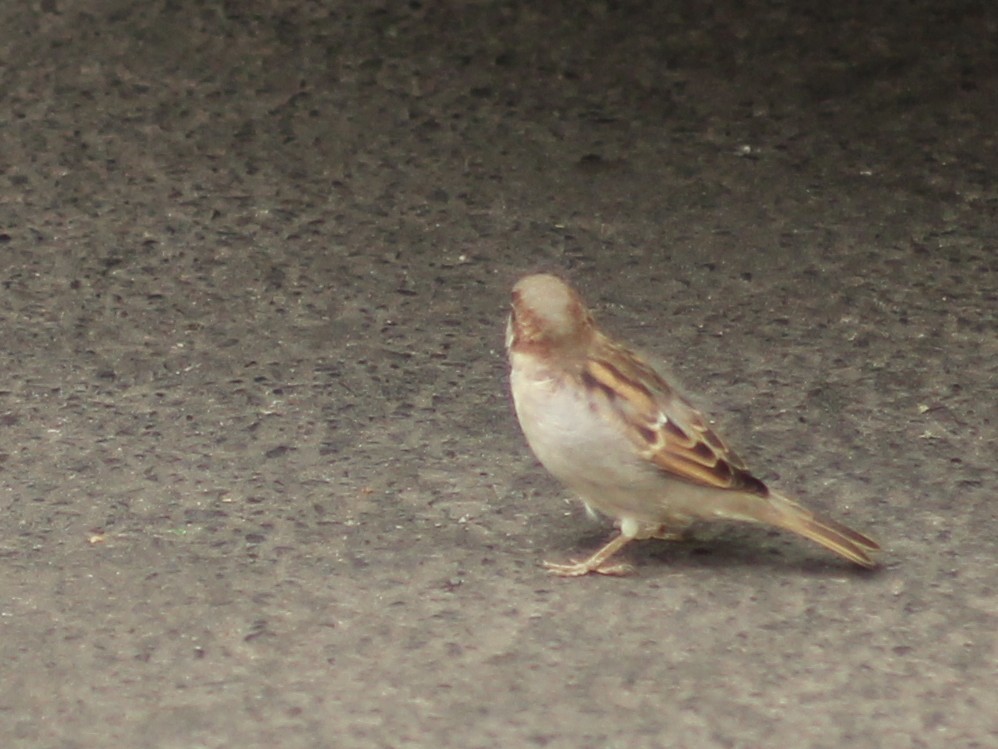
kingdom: Animalia
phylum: Chordata
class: Aves
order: Passeriformes
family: Passeridae
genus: Passer
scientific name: Passer domesticus
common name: House sparrow
